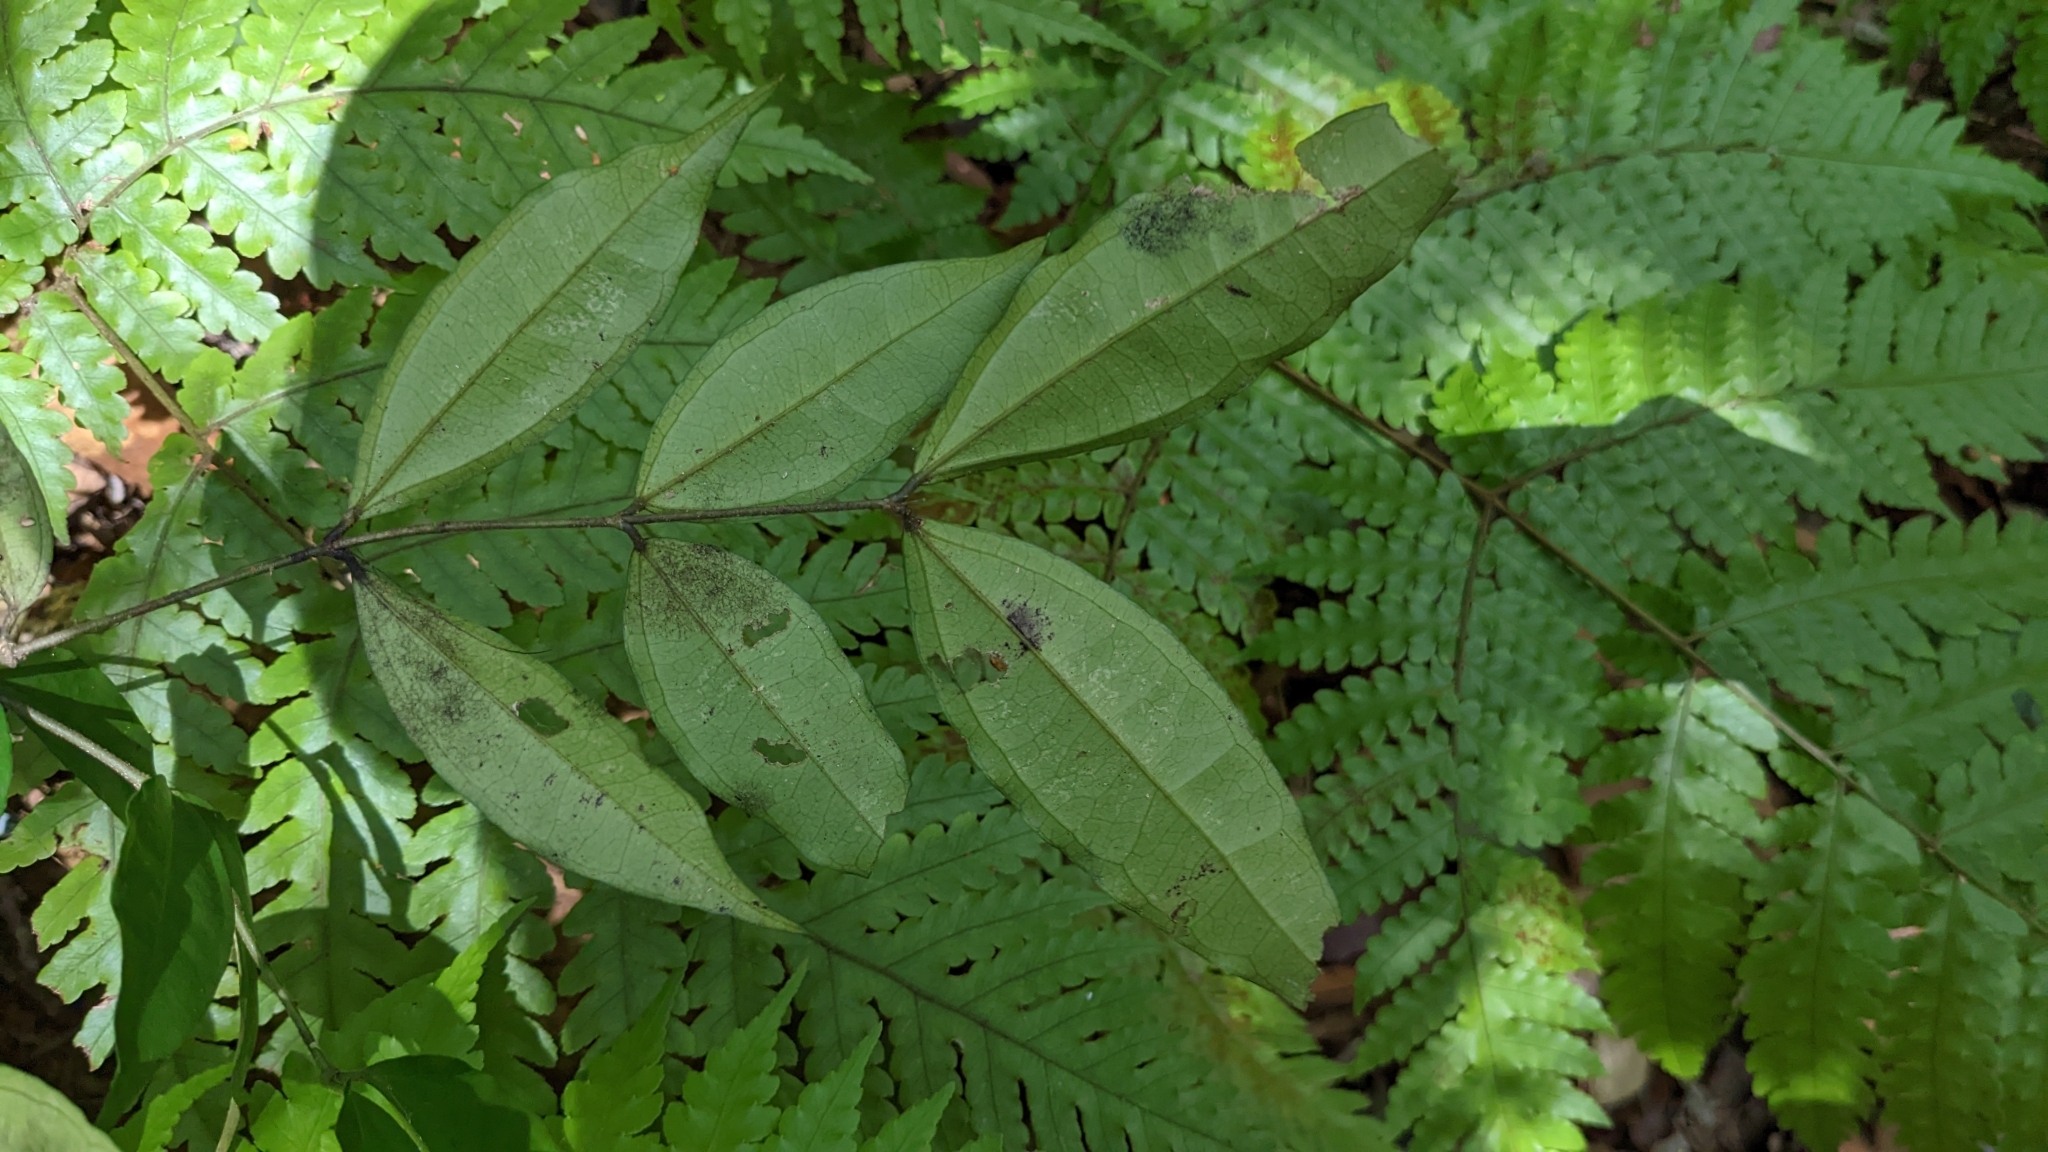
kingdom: Plantae
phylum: Tracheophyta
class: Magnoliopsida
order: Gentianales
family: Loganiaceae
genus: Strychnos
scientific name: Strychnos cathayensis
